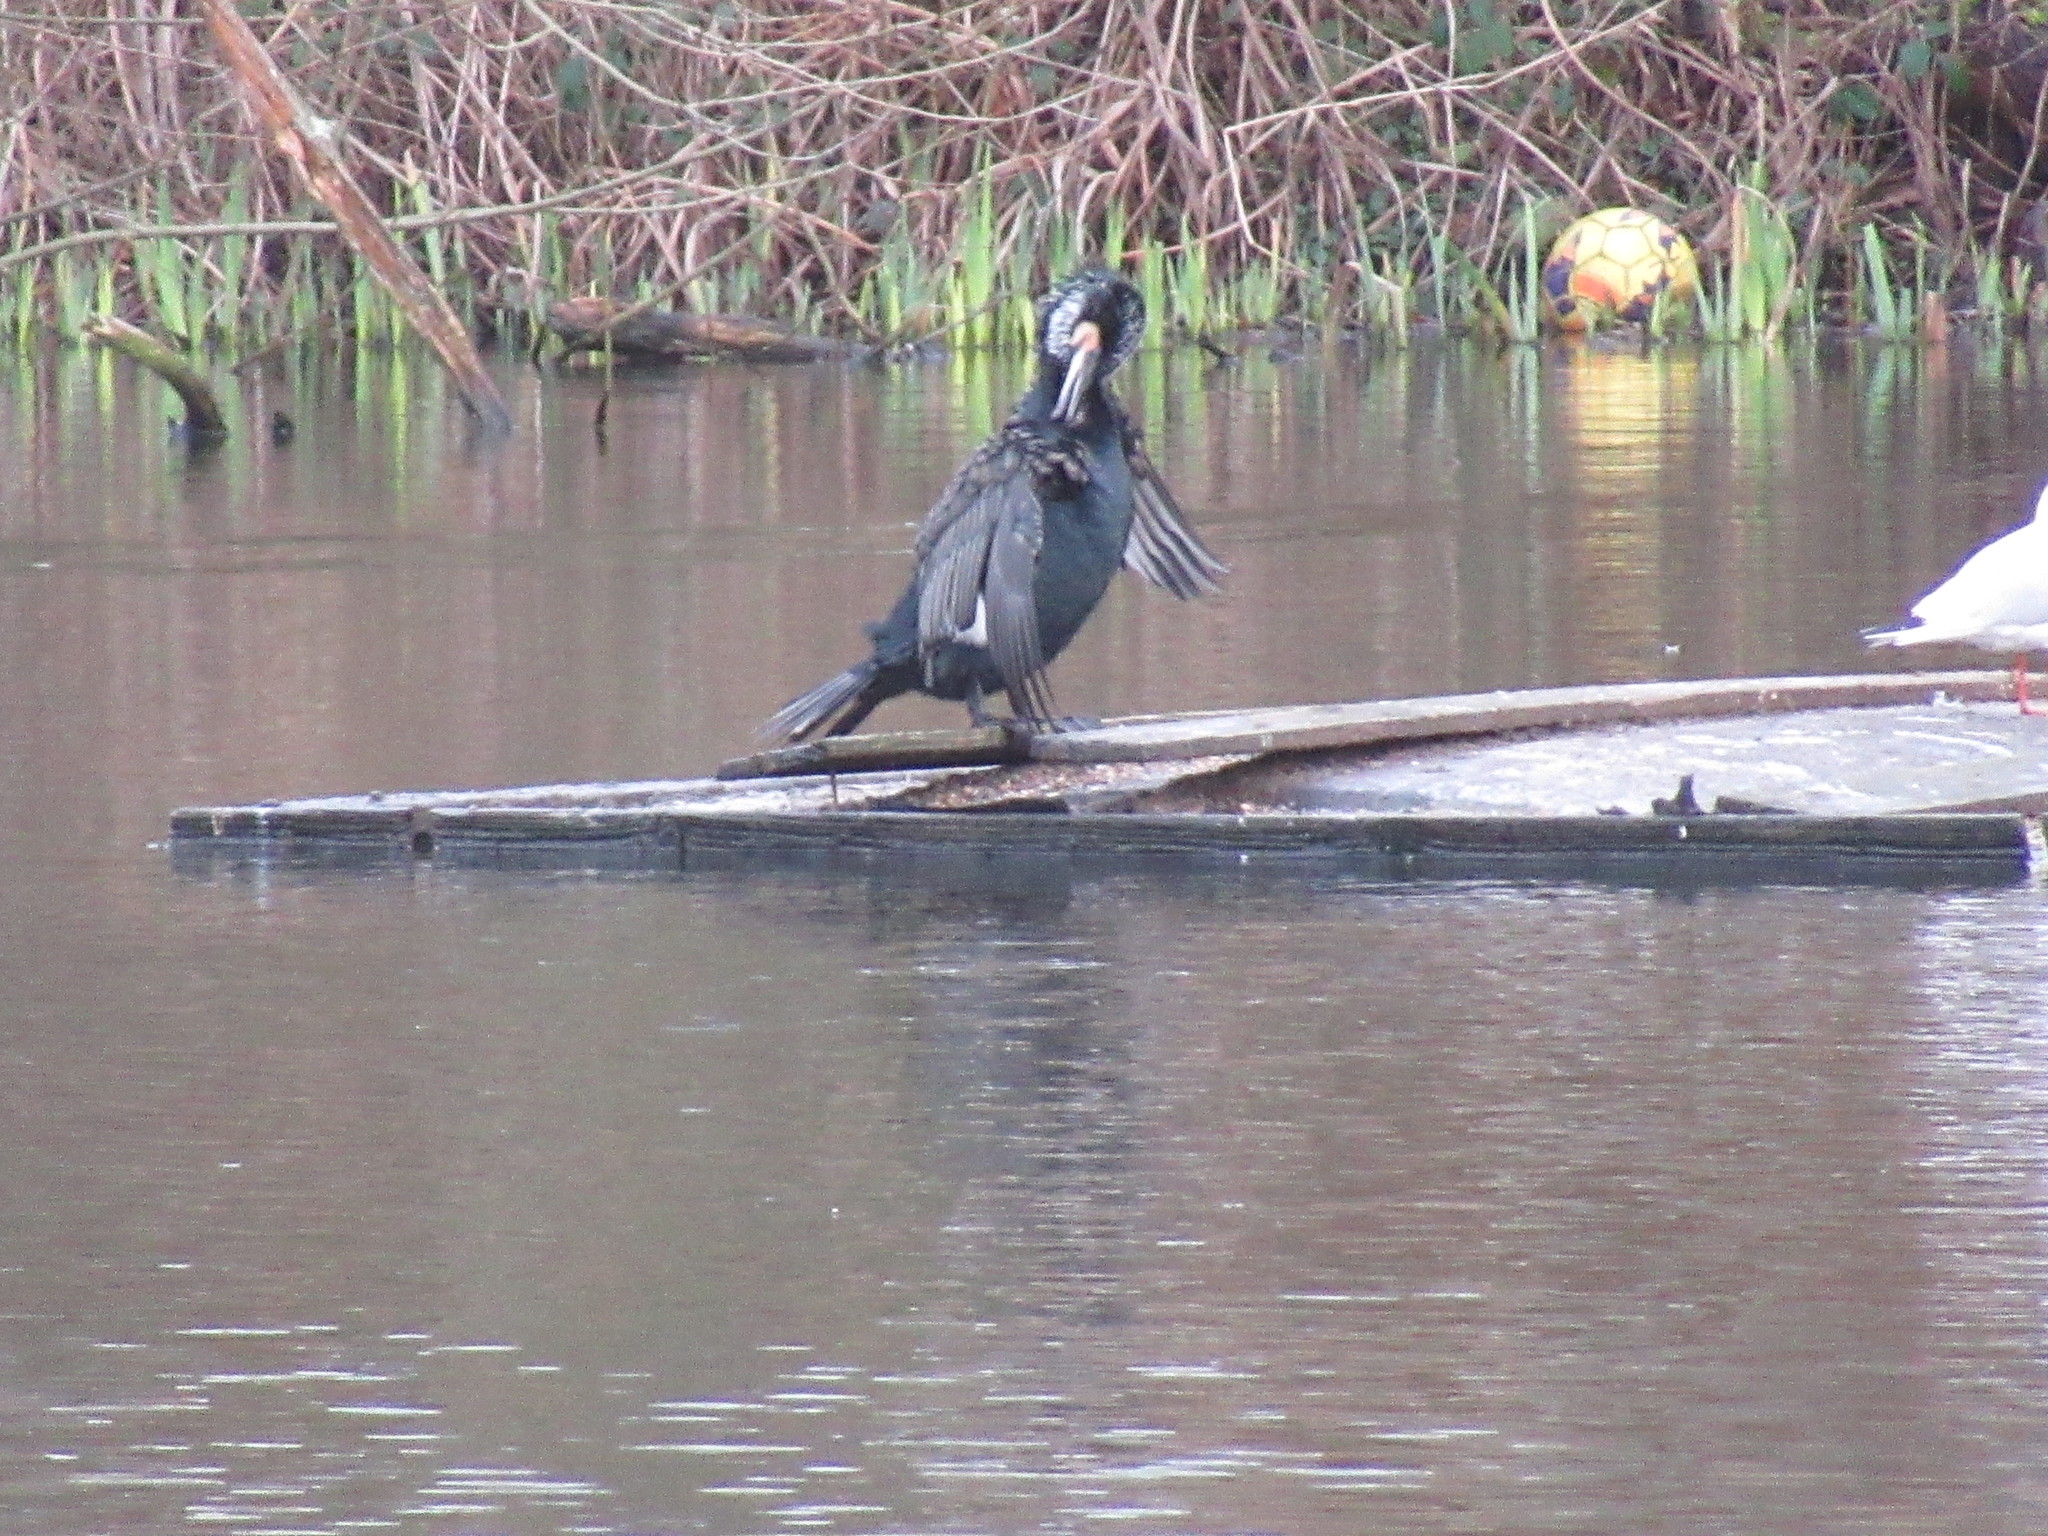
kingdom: Animalia
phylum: Chordata
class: Aves
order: Suliformes
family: Phalacrocoracidae
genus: Phalacrocorax
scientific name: Phalacrocorax carbo
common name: Great cormorant
